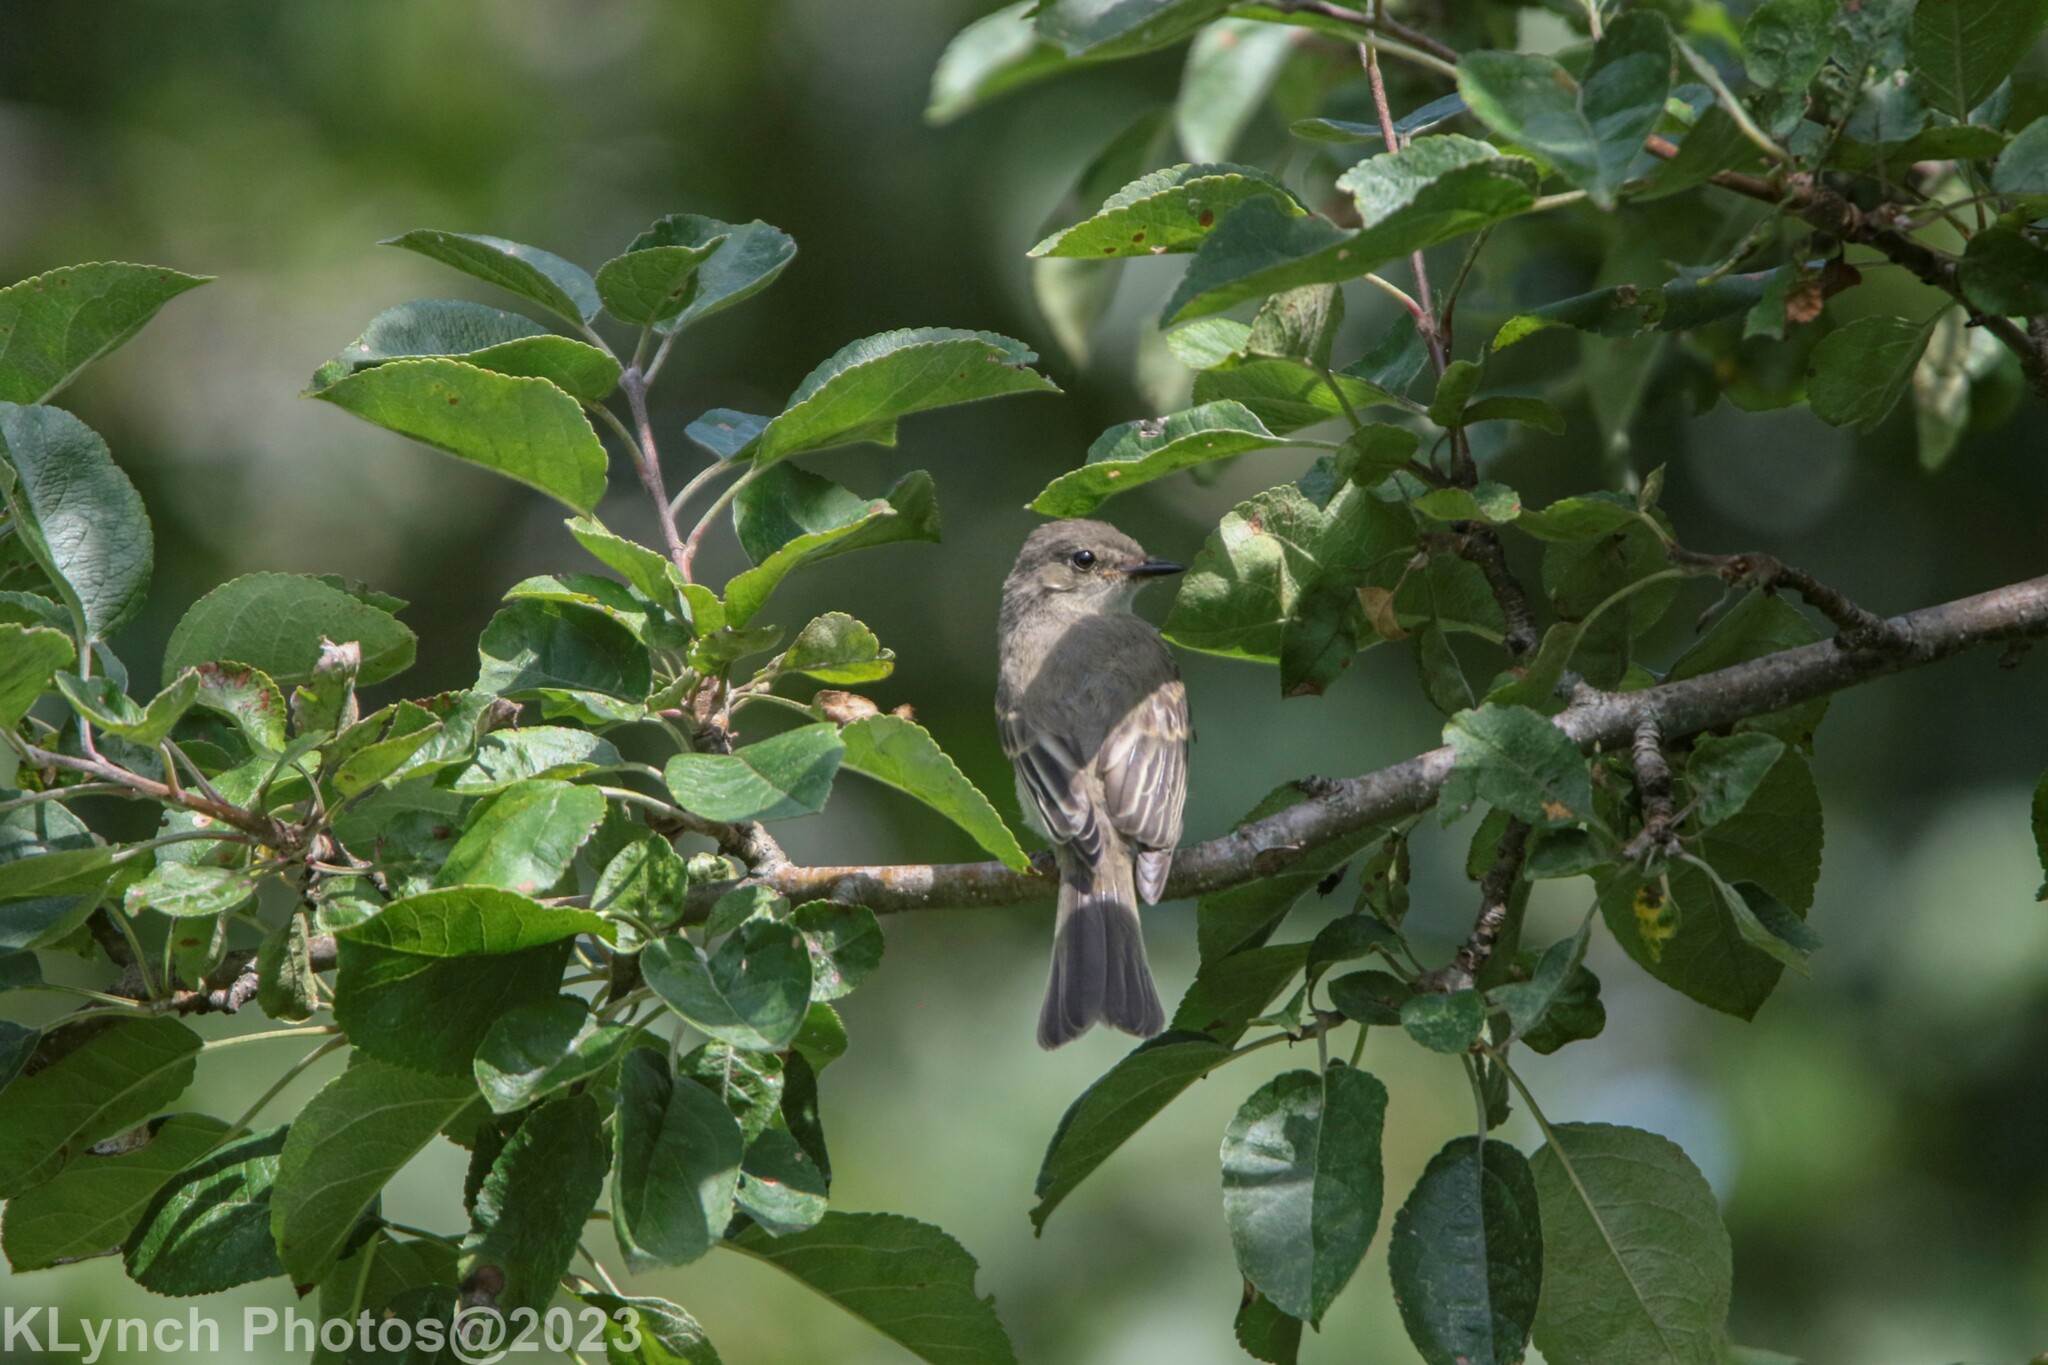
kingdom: Animalia
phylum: Chordata
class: Aves
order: Passeriformes
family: Tyrannidae
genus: Sayornis
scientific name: Sayornis phoebe
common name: Eastern phoebe
